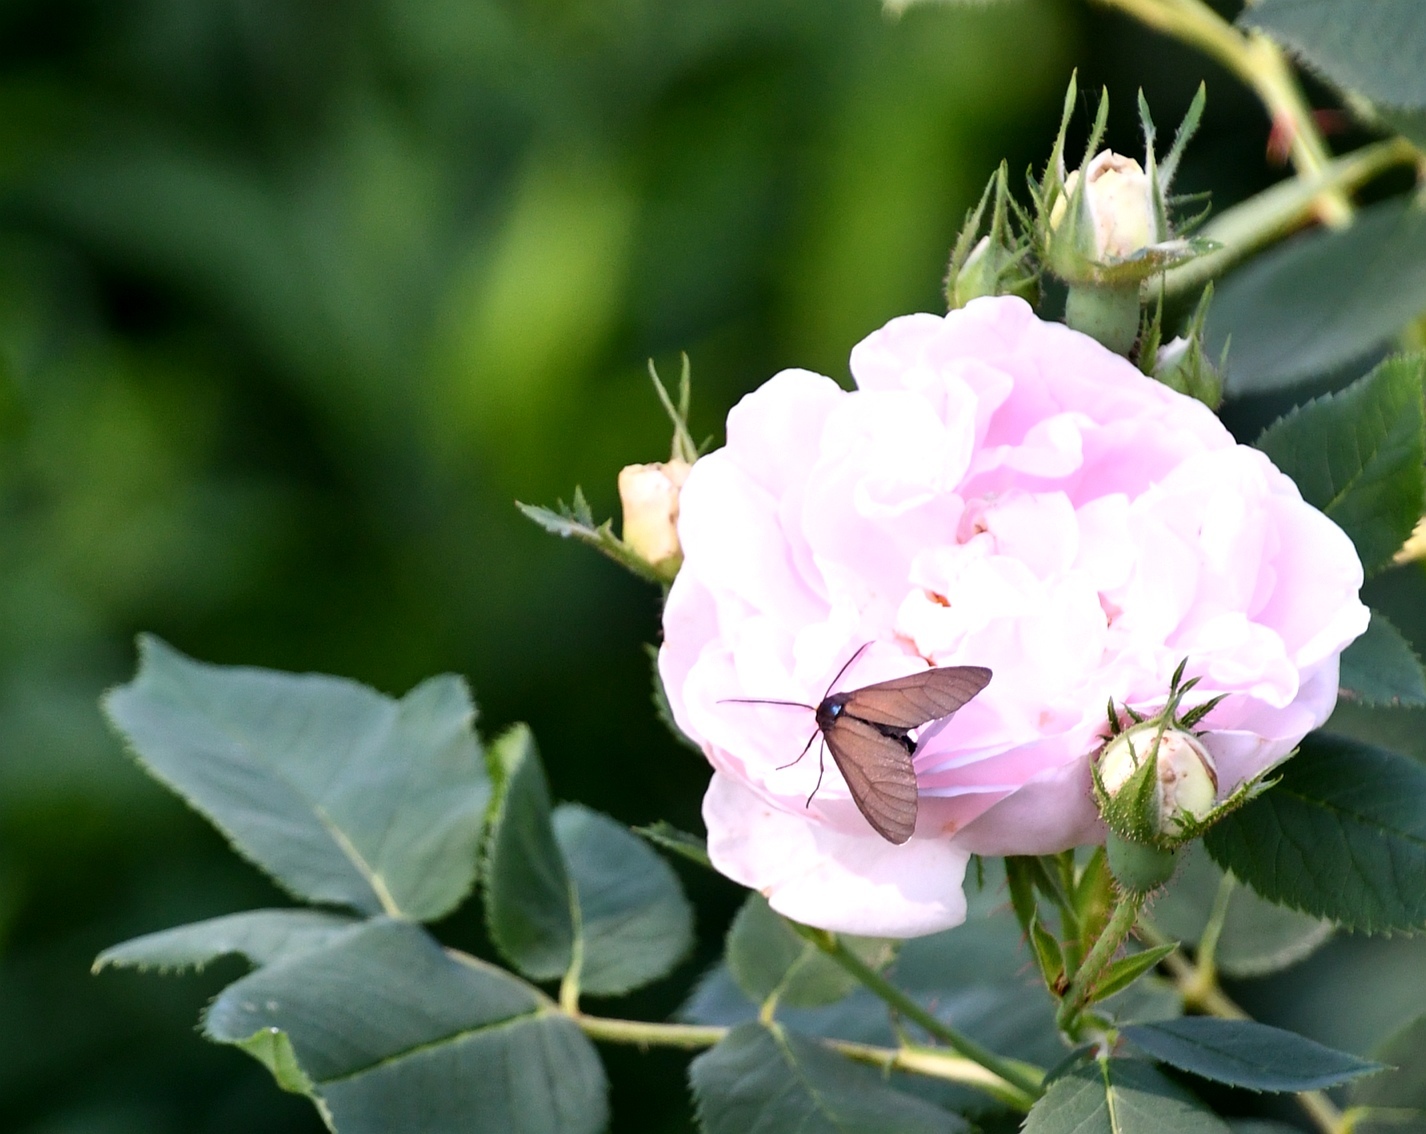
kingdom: Animalia
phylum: Arthropoda
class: Insecta
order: Lepidoptera
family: Erebidae
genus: Ctenucha
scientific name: Ctenucha virginica
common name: Virginia ctenucha moth
